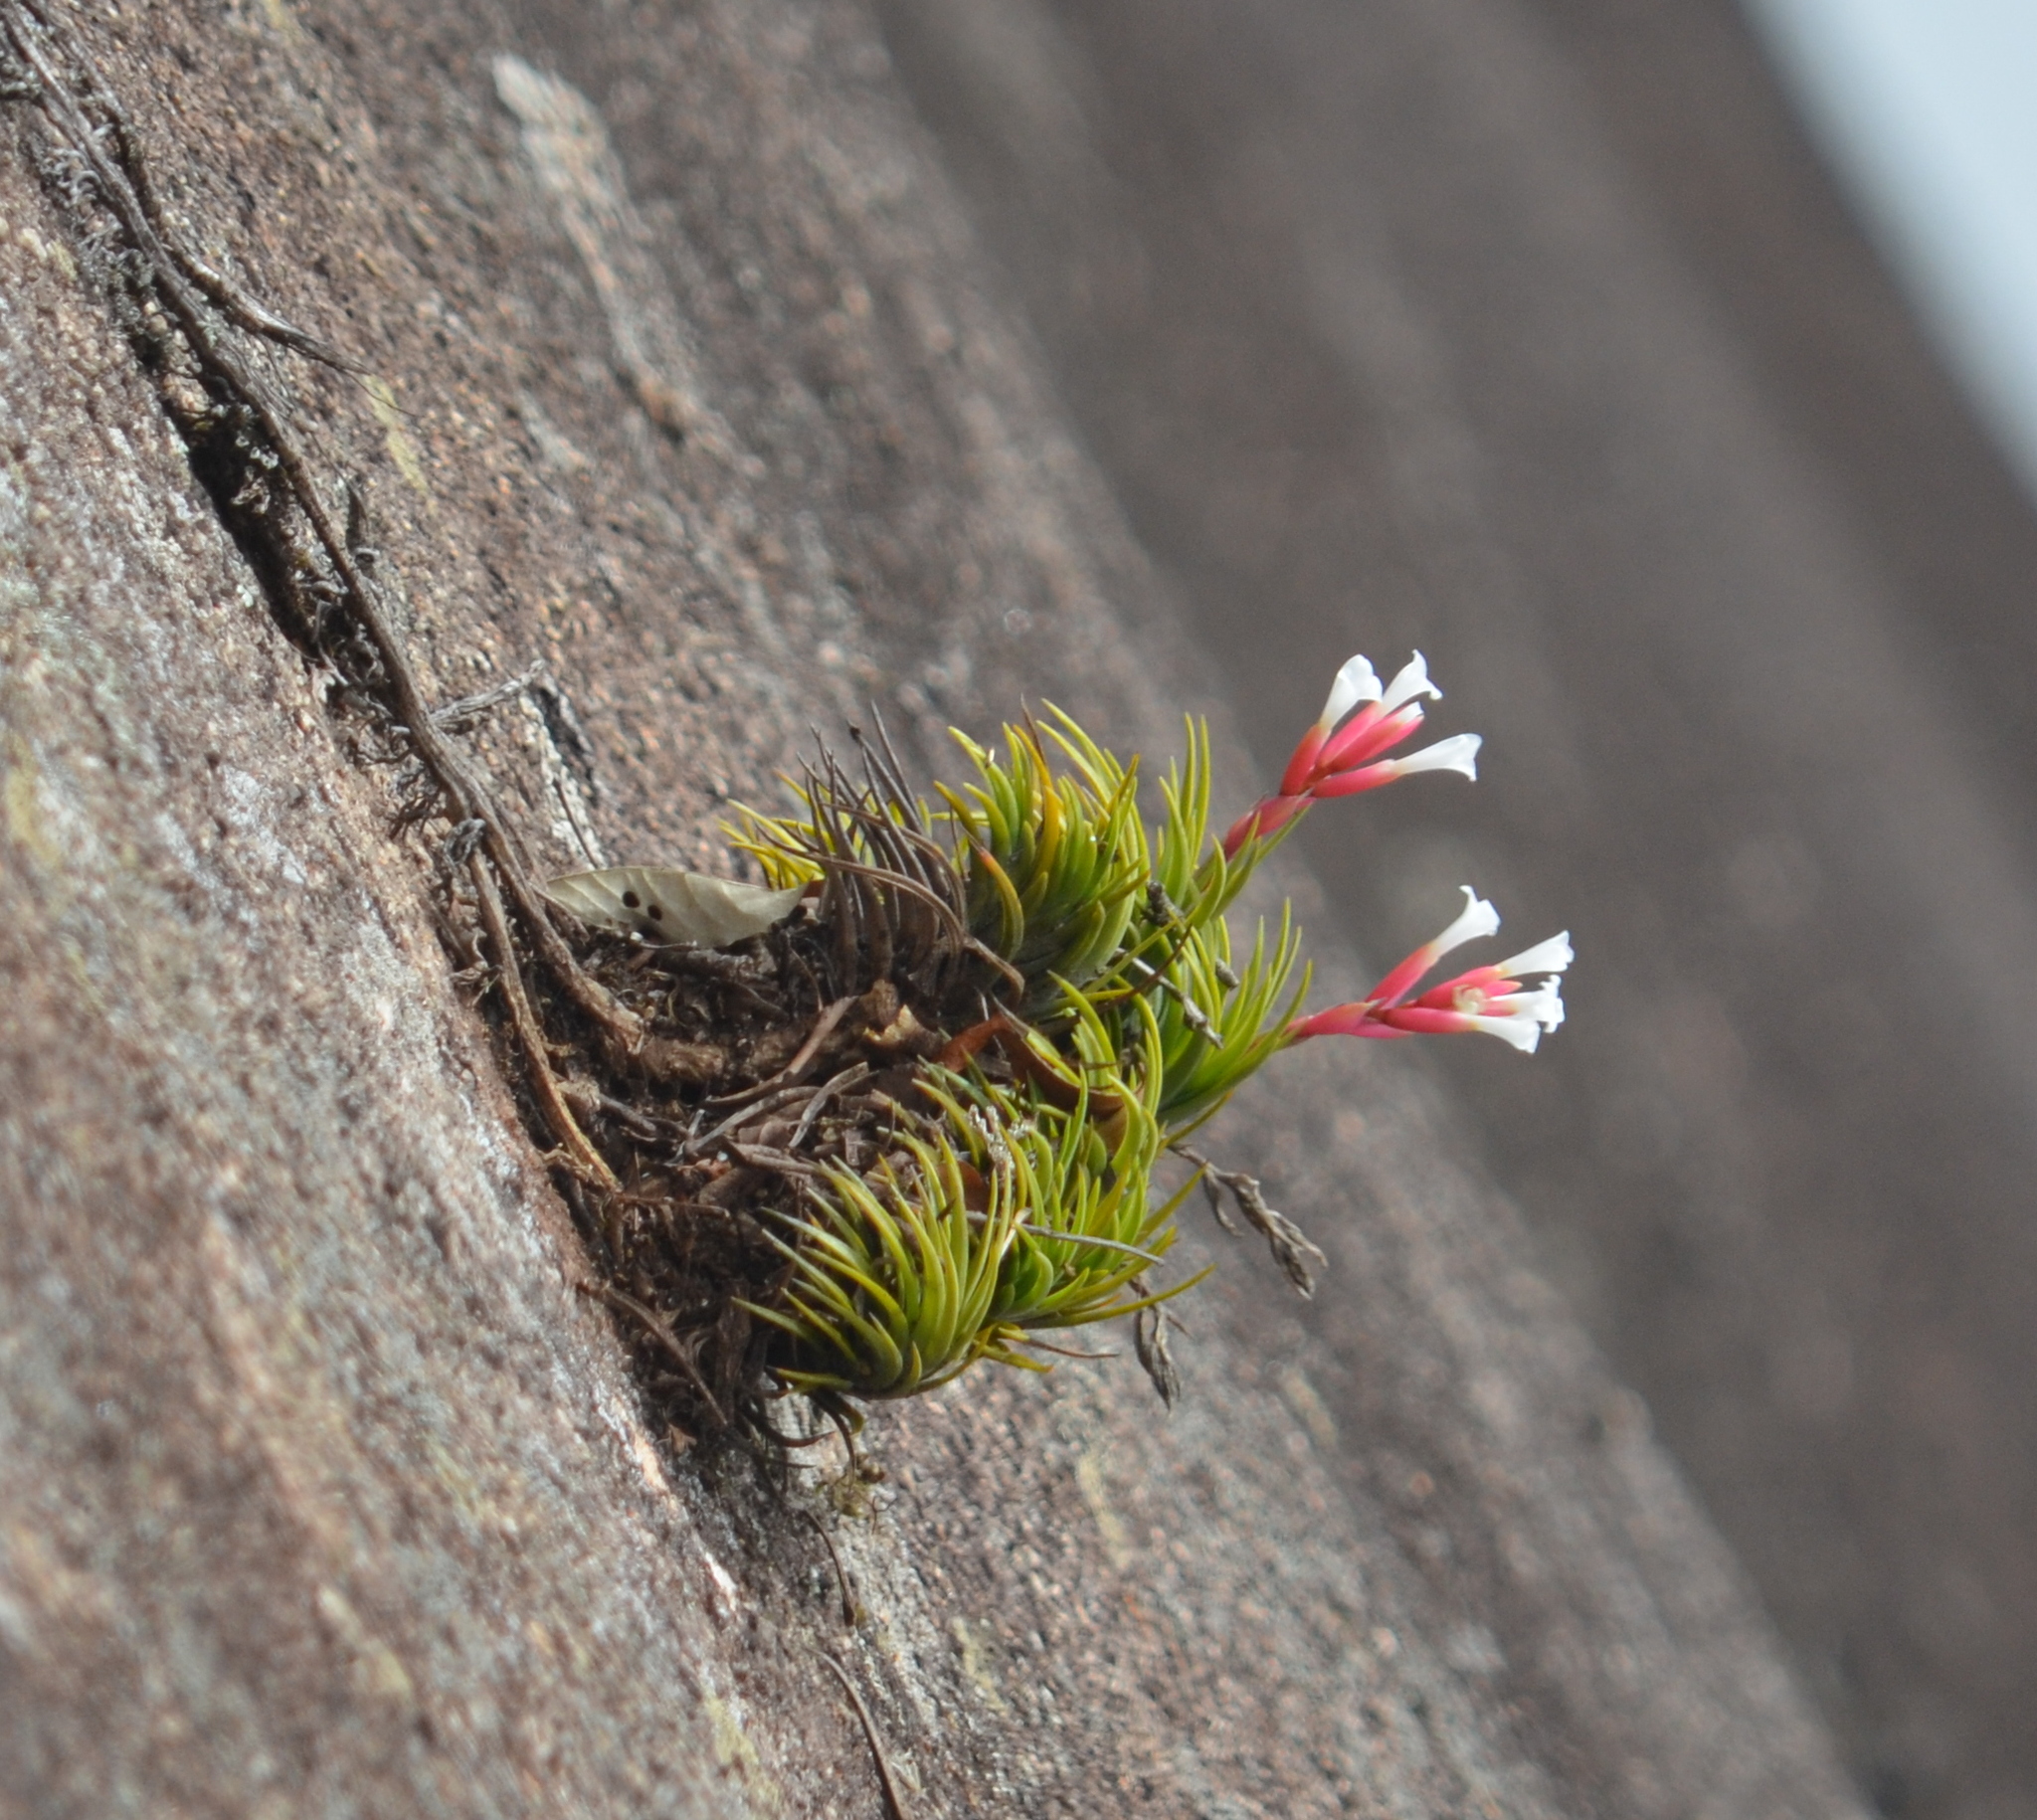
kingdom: Plantae
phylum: Tracheophyta
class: Liliopsida
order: Poales
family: Bromeliaceae
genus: Tillandsia
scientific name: Tillandsia araujei
